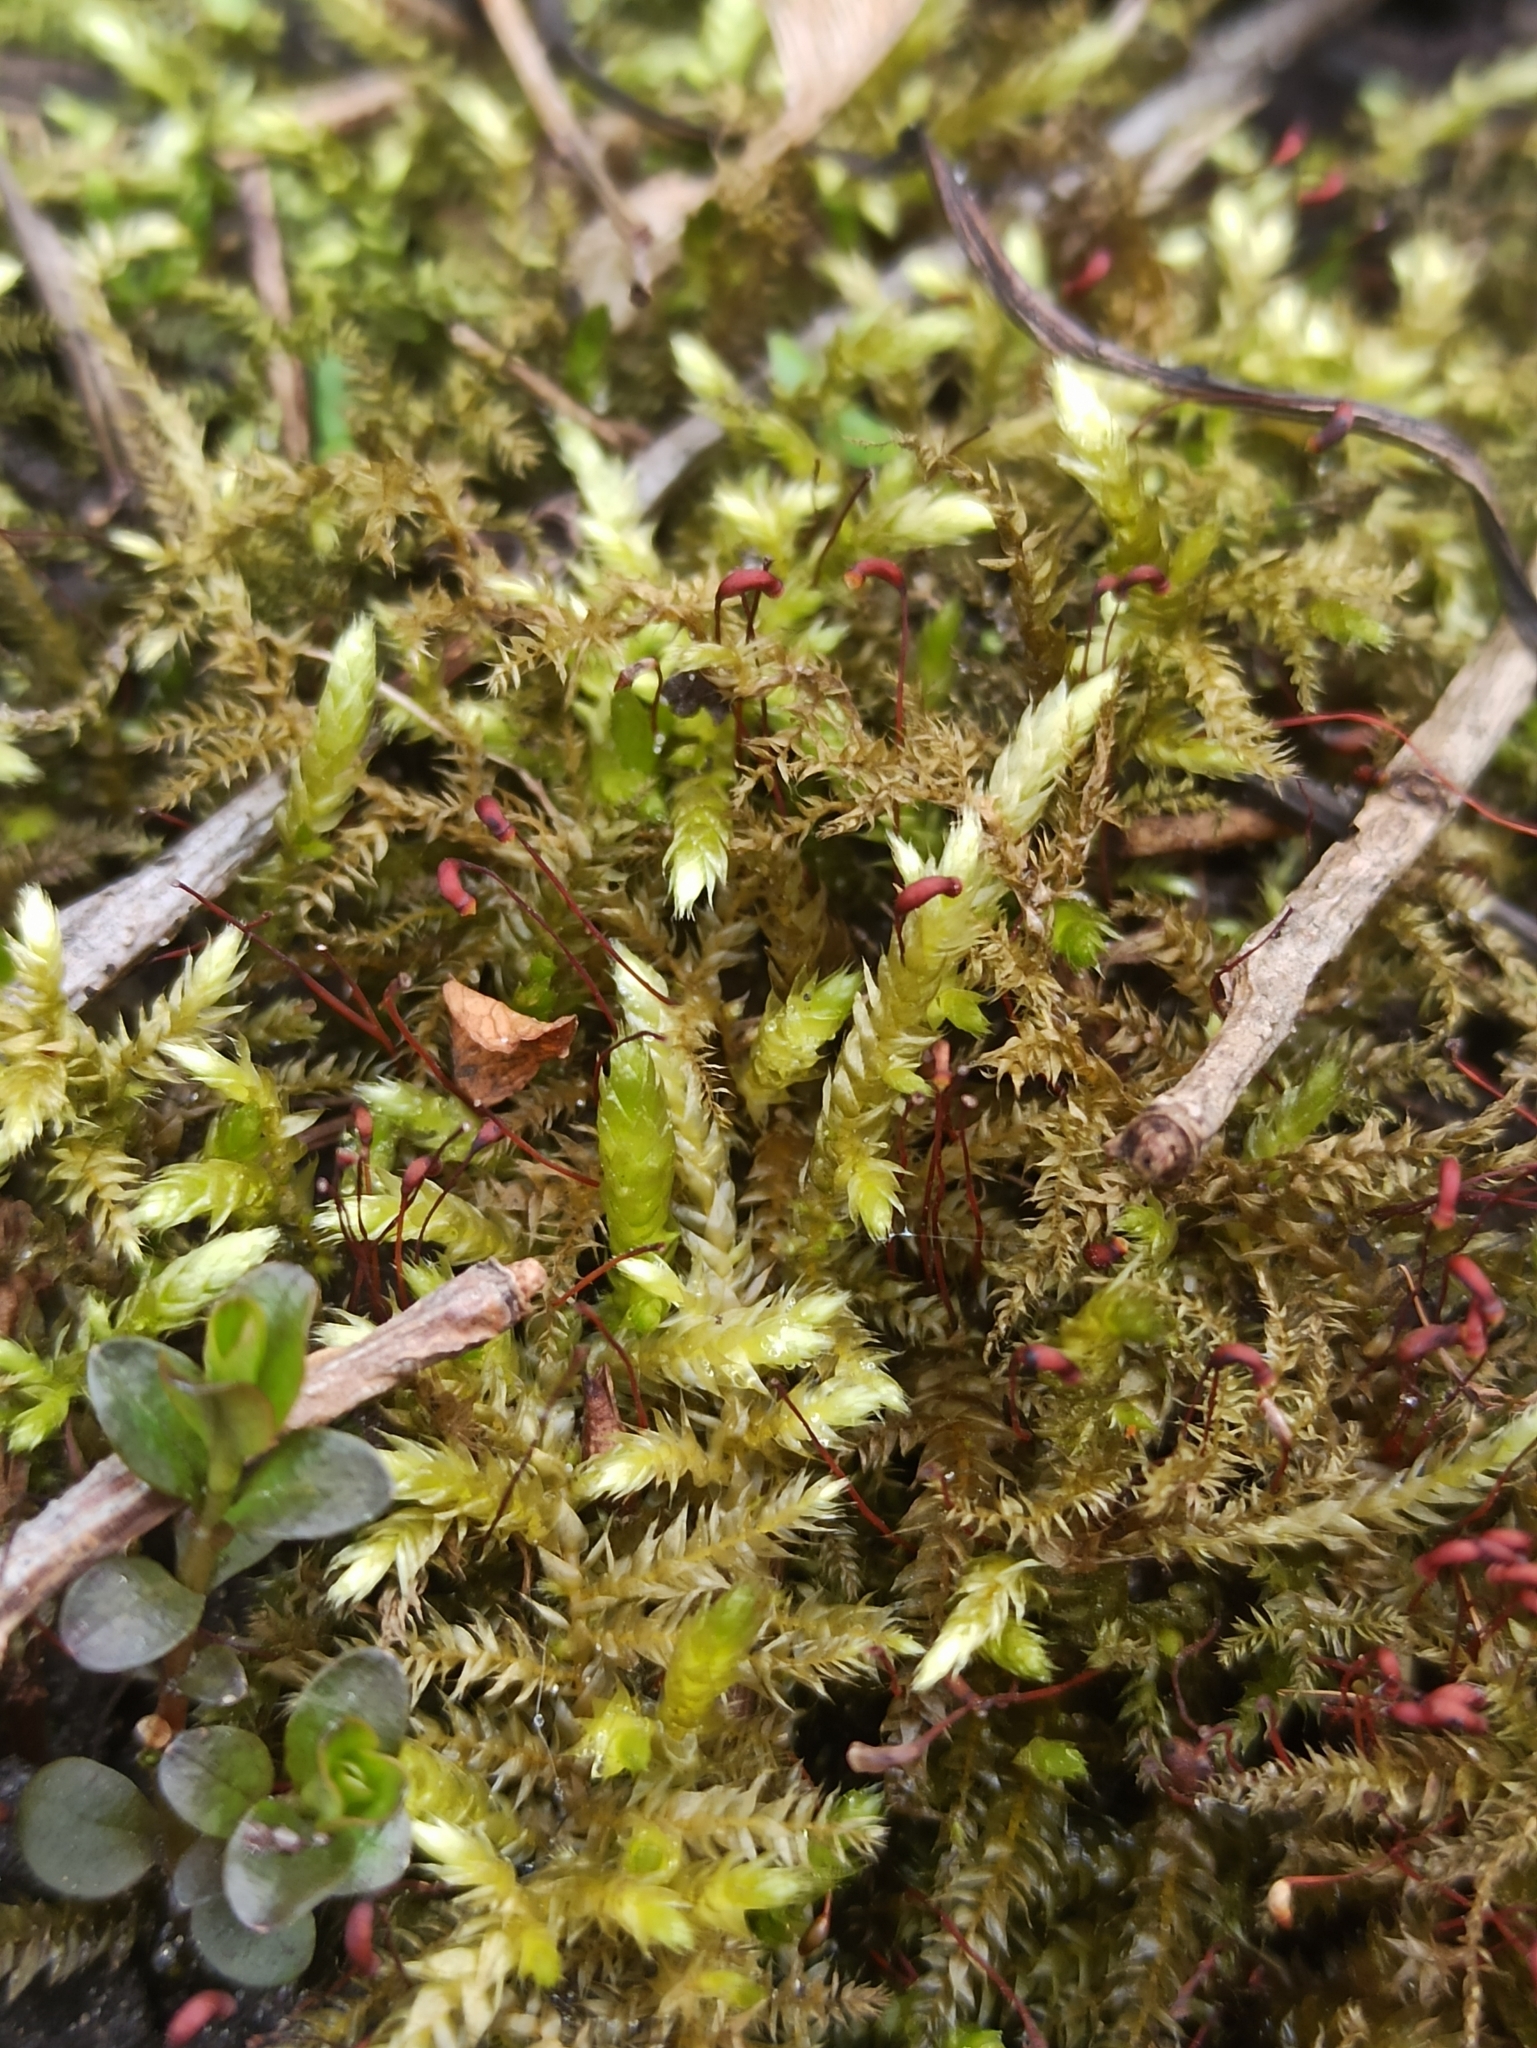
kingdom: Plantae
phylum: Bryophyta
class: Bryopsida
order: Hypnales
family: Brachytheciaceae
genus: Brachythecium
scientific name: Brachythecium rutabulum
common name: Rough-stalked feather-moss
